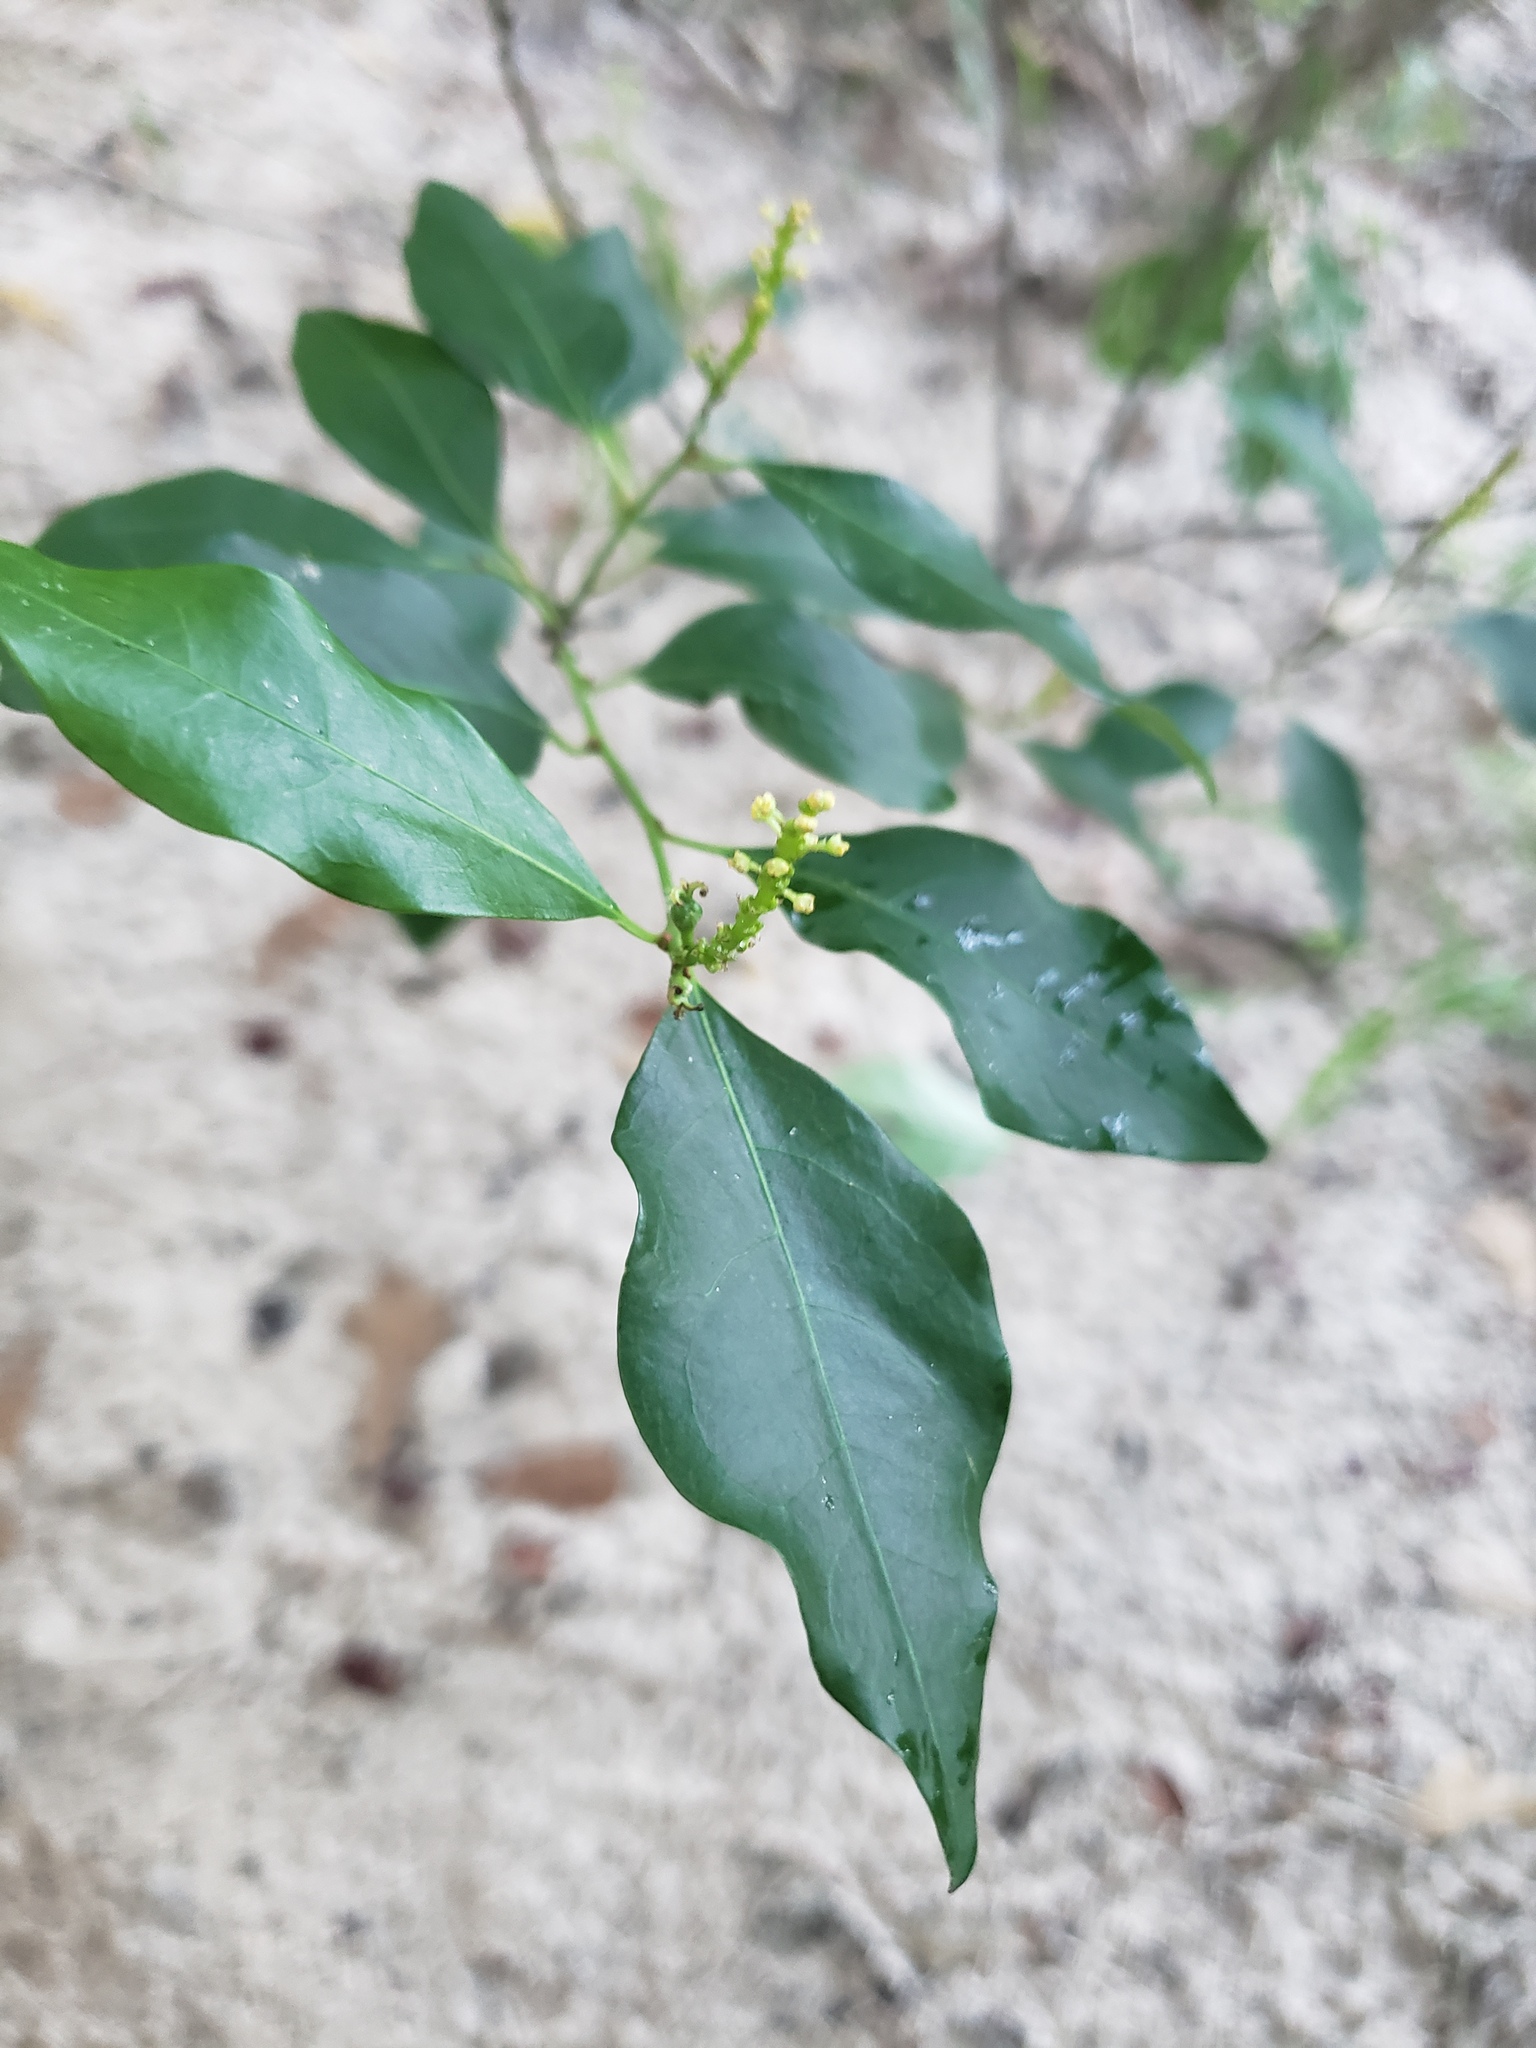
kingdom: Plantae
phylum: Tracheophyta
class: Magnoliopsida
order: Malpighiales
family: Euphorbiaceae
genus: Ditrysinia
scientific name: Ditrysinia fruticosa
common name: Gulf sebastian-bush
